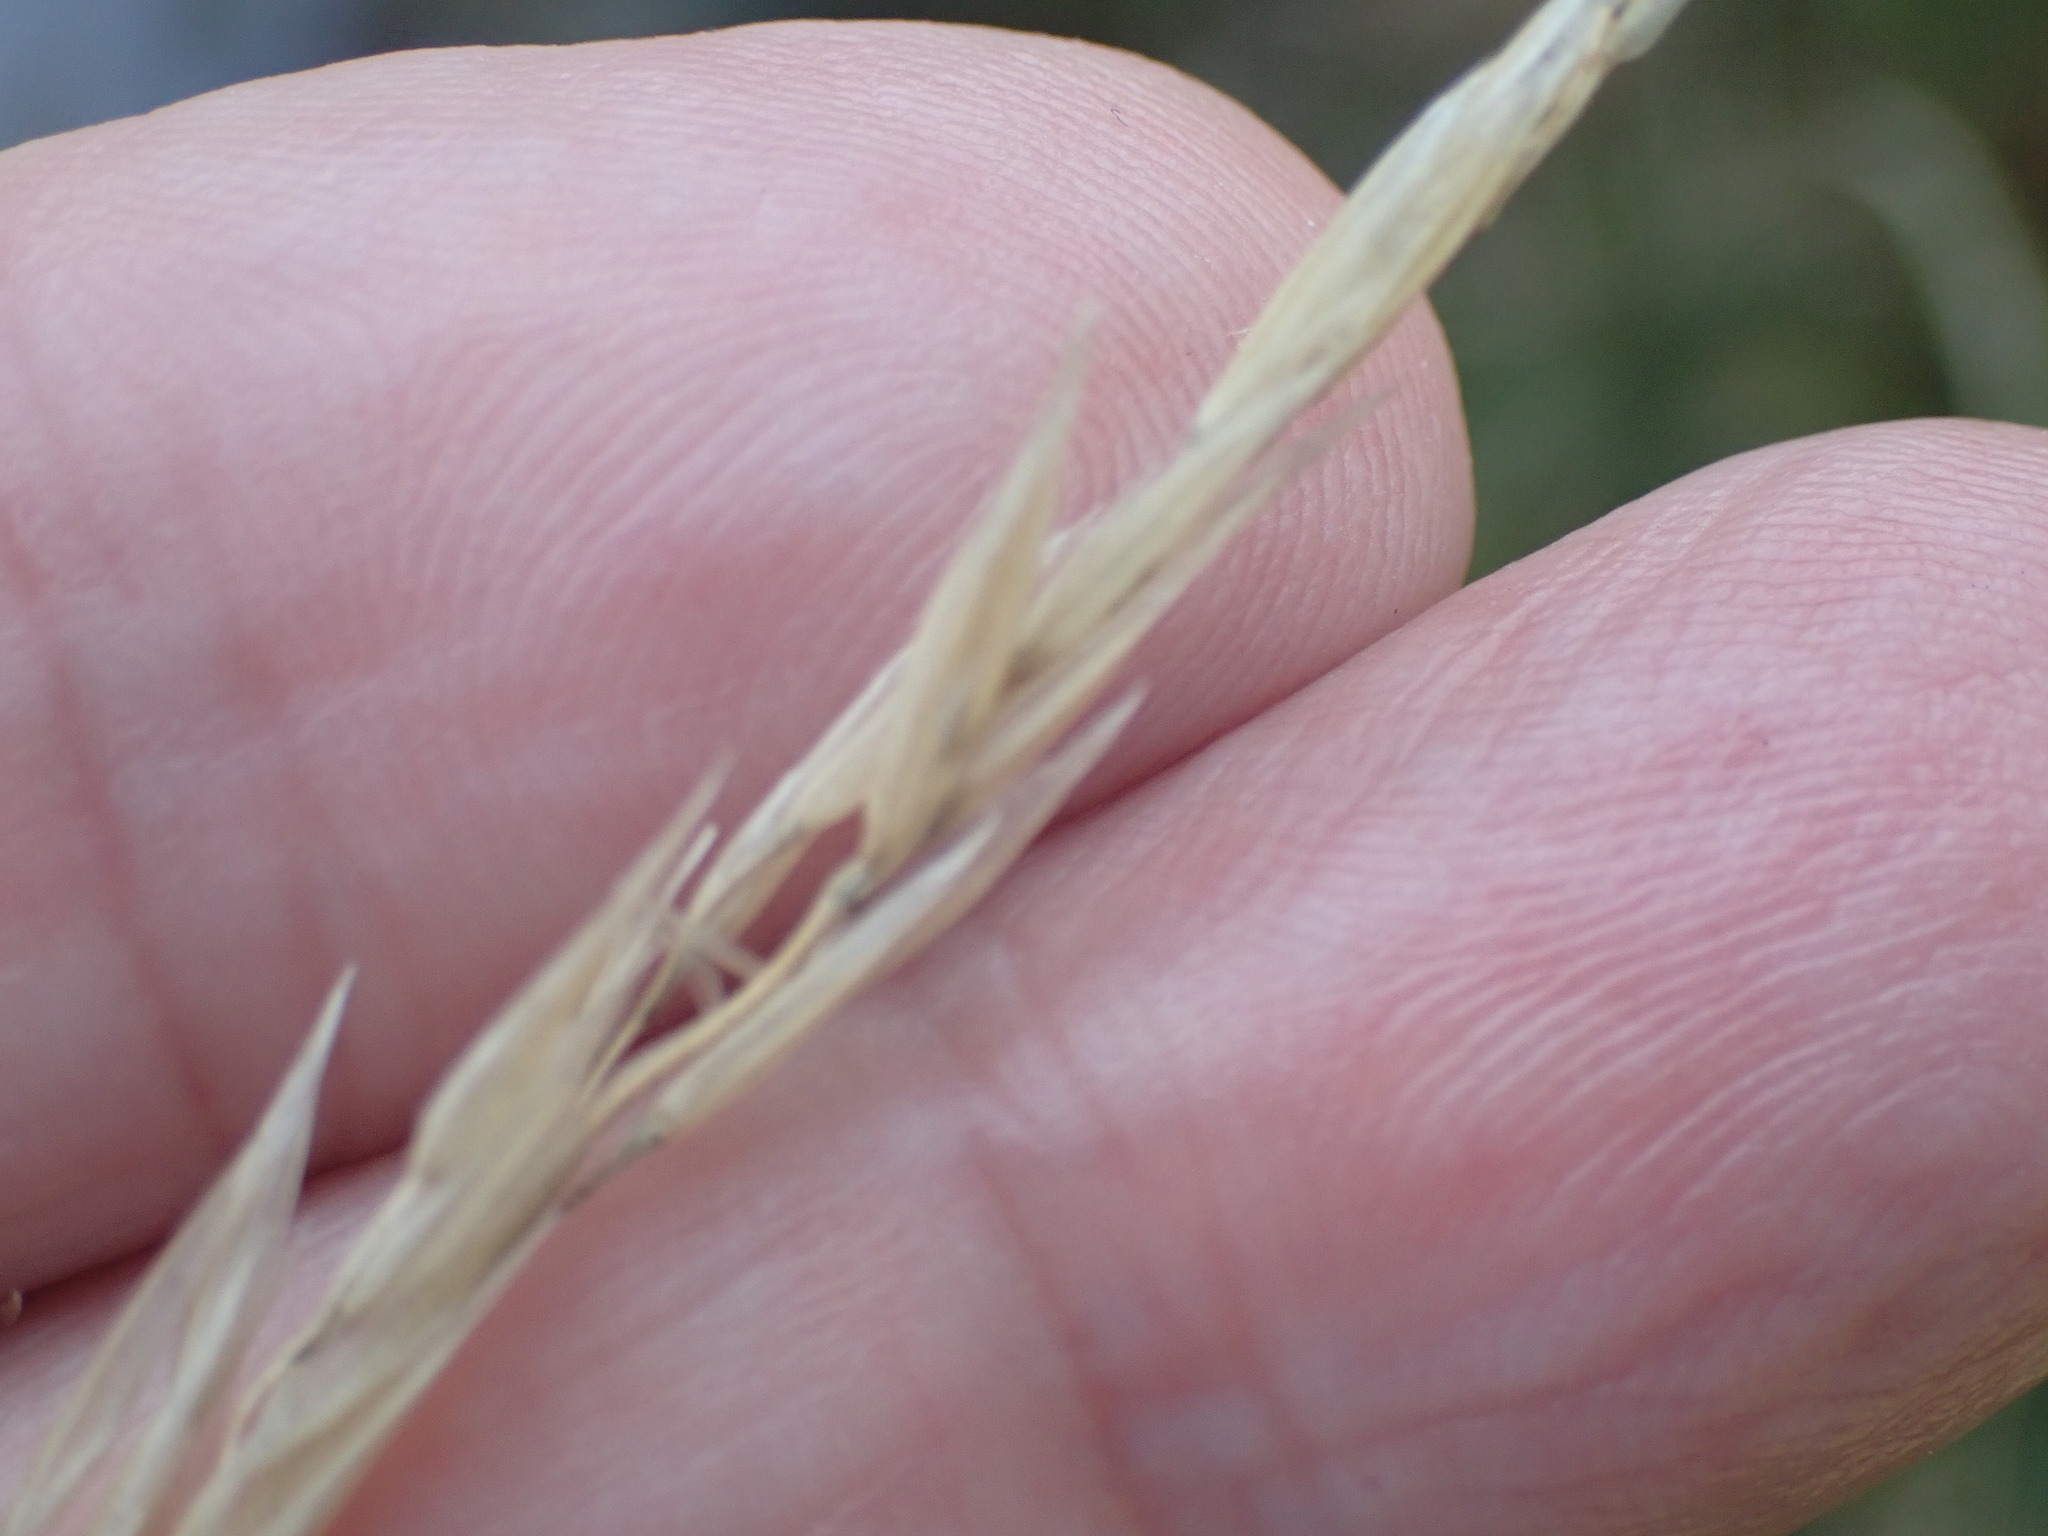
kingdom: Plantae
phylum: Tracheophyta
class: Liliopsida
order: Poales
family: Poaceae
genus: Arrhenatherum
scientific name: Arrhenatherum elatius
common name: Tall oatgrass
